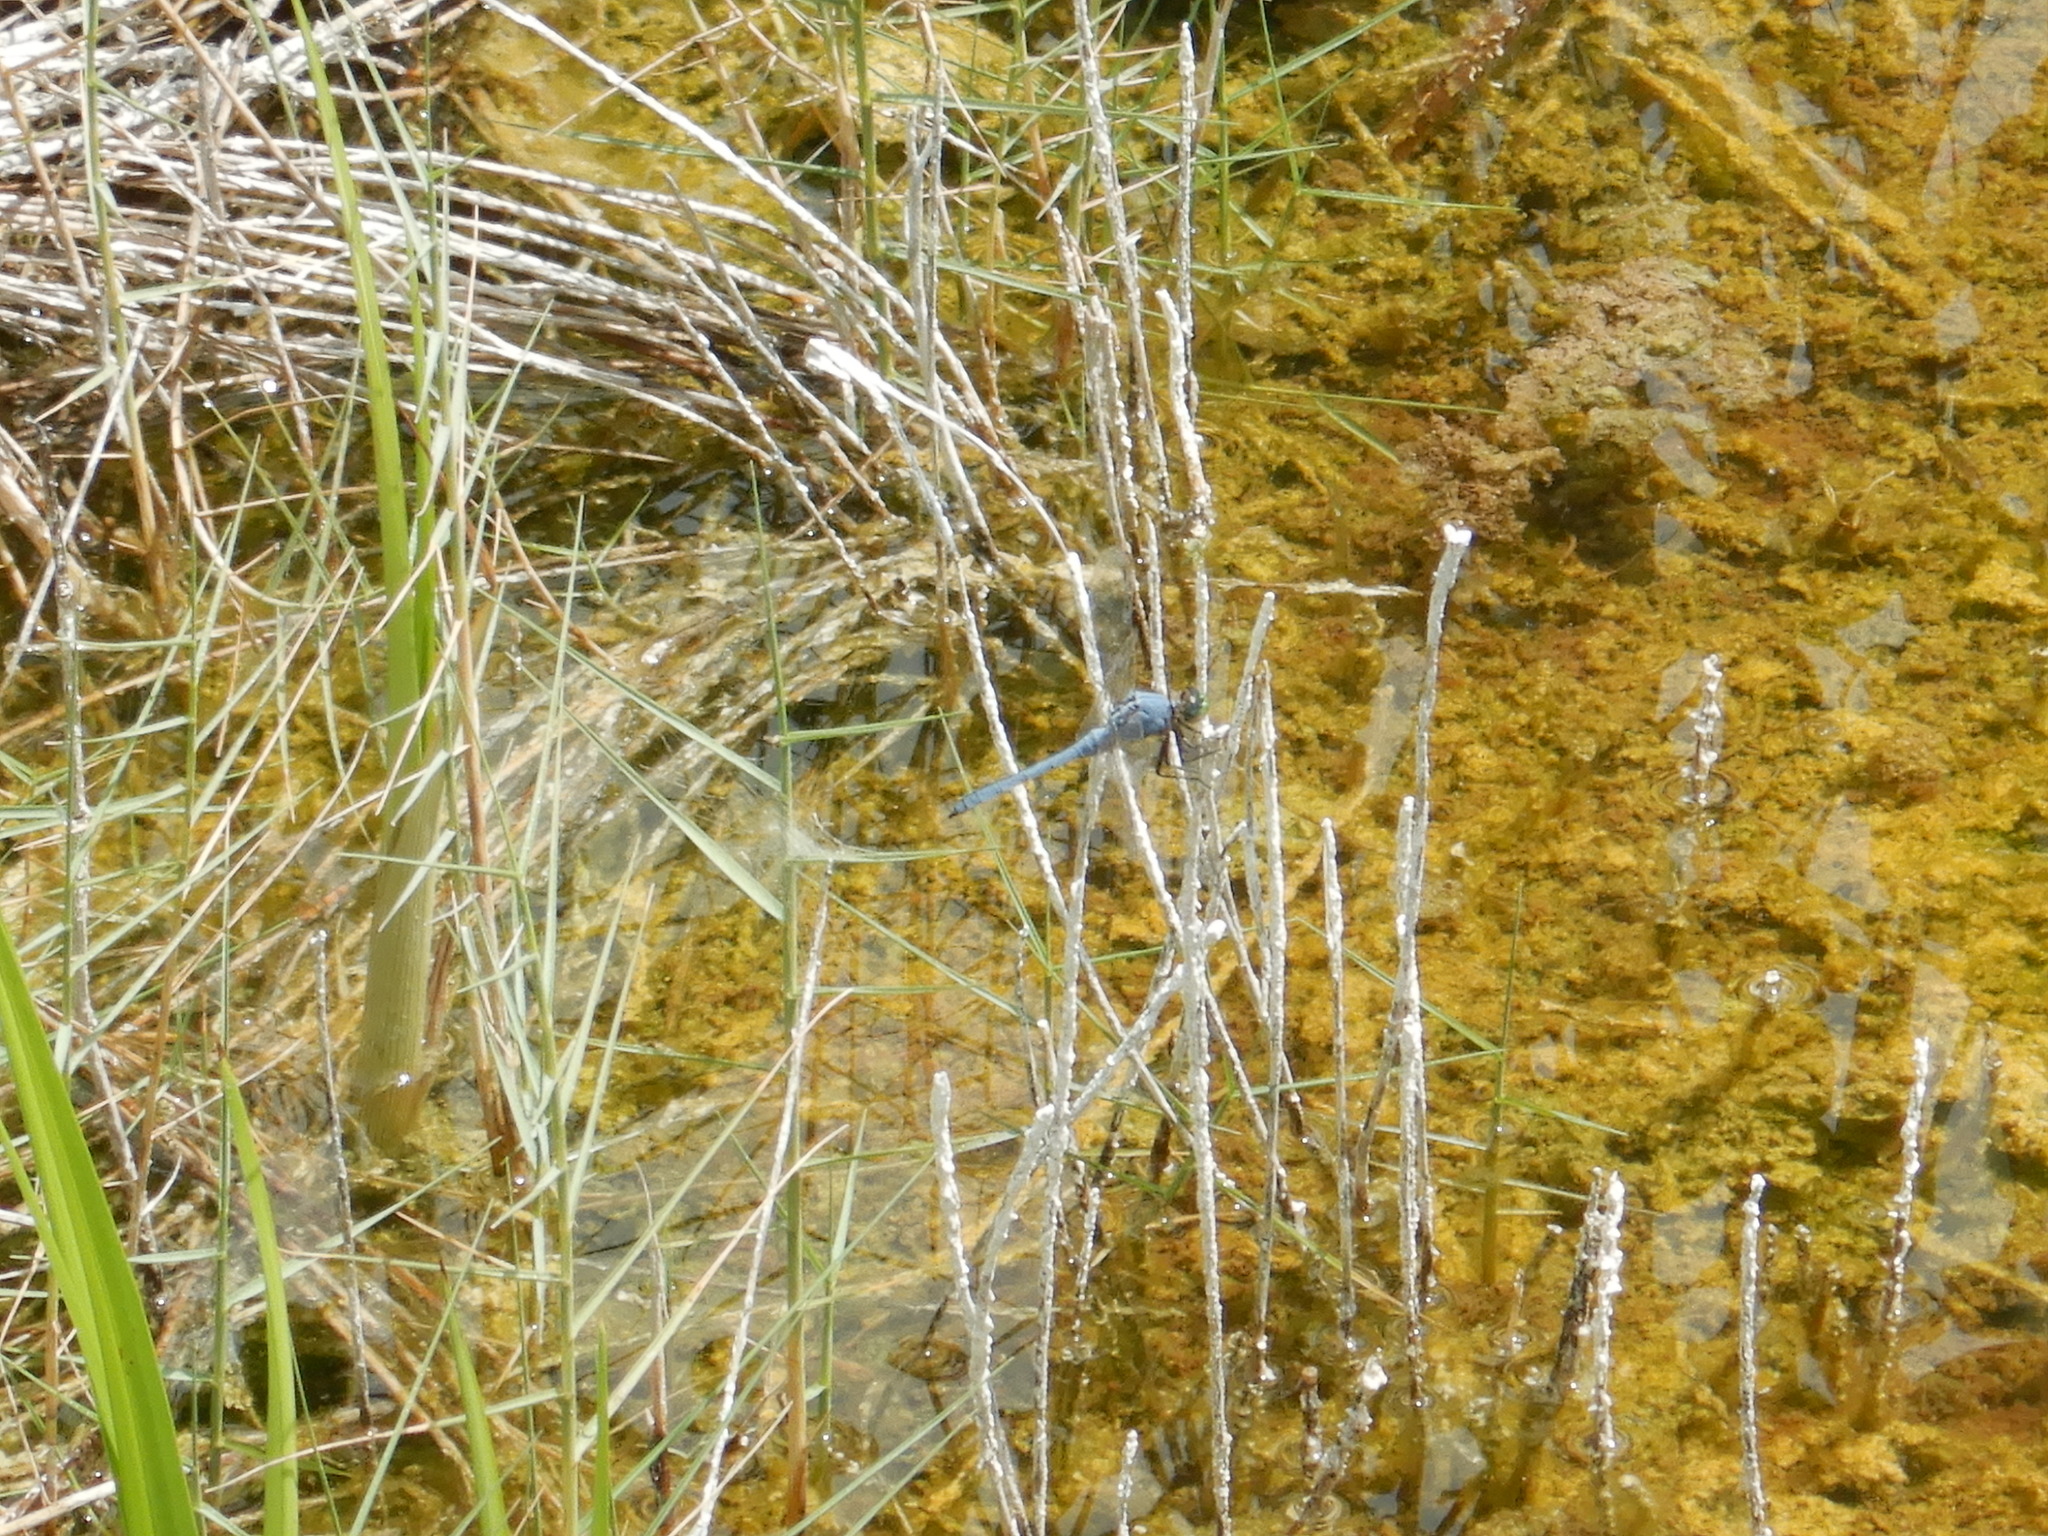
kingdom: Animalia
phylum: Arthropoda
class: Insecta
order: Odonata
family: Libellulidae
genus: Erythemis
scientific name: Erythemis simplicicollis
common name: Eastern pondhawk
